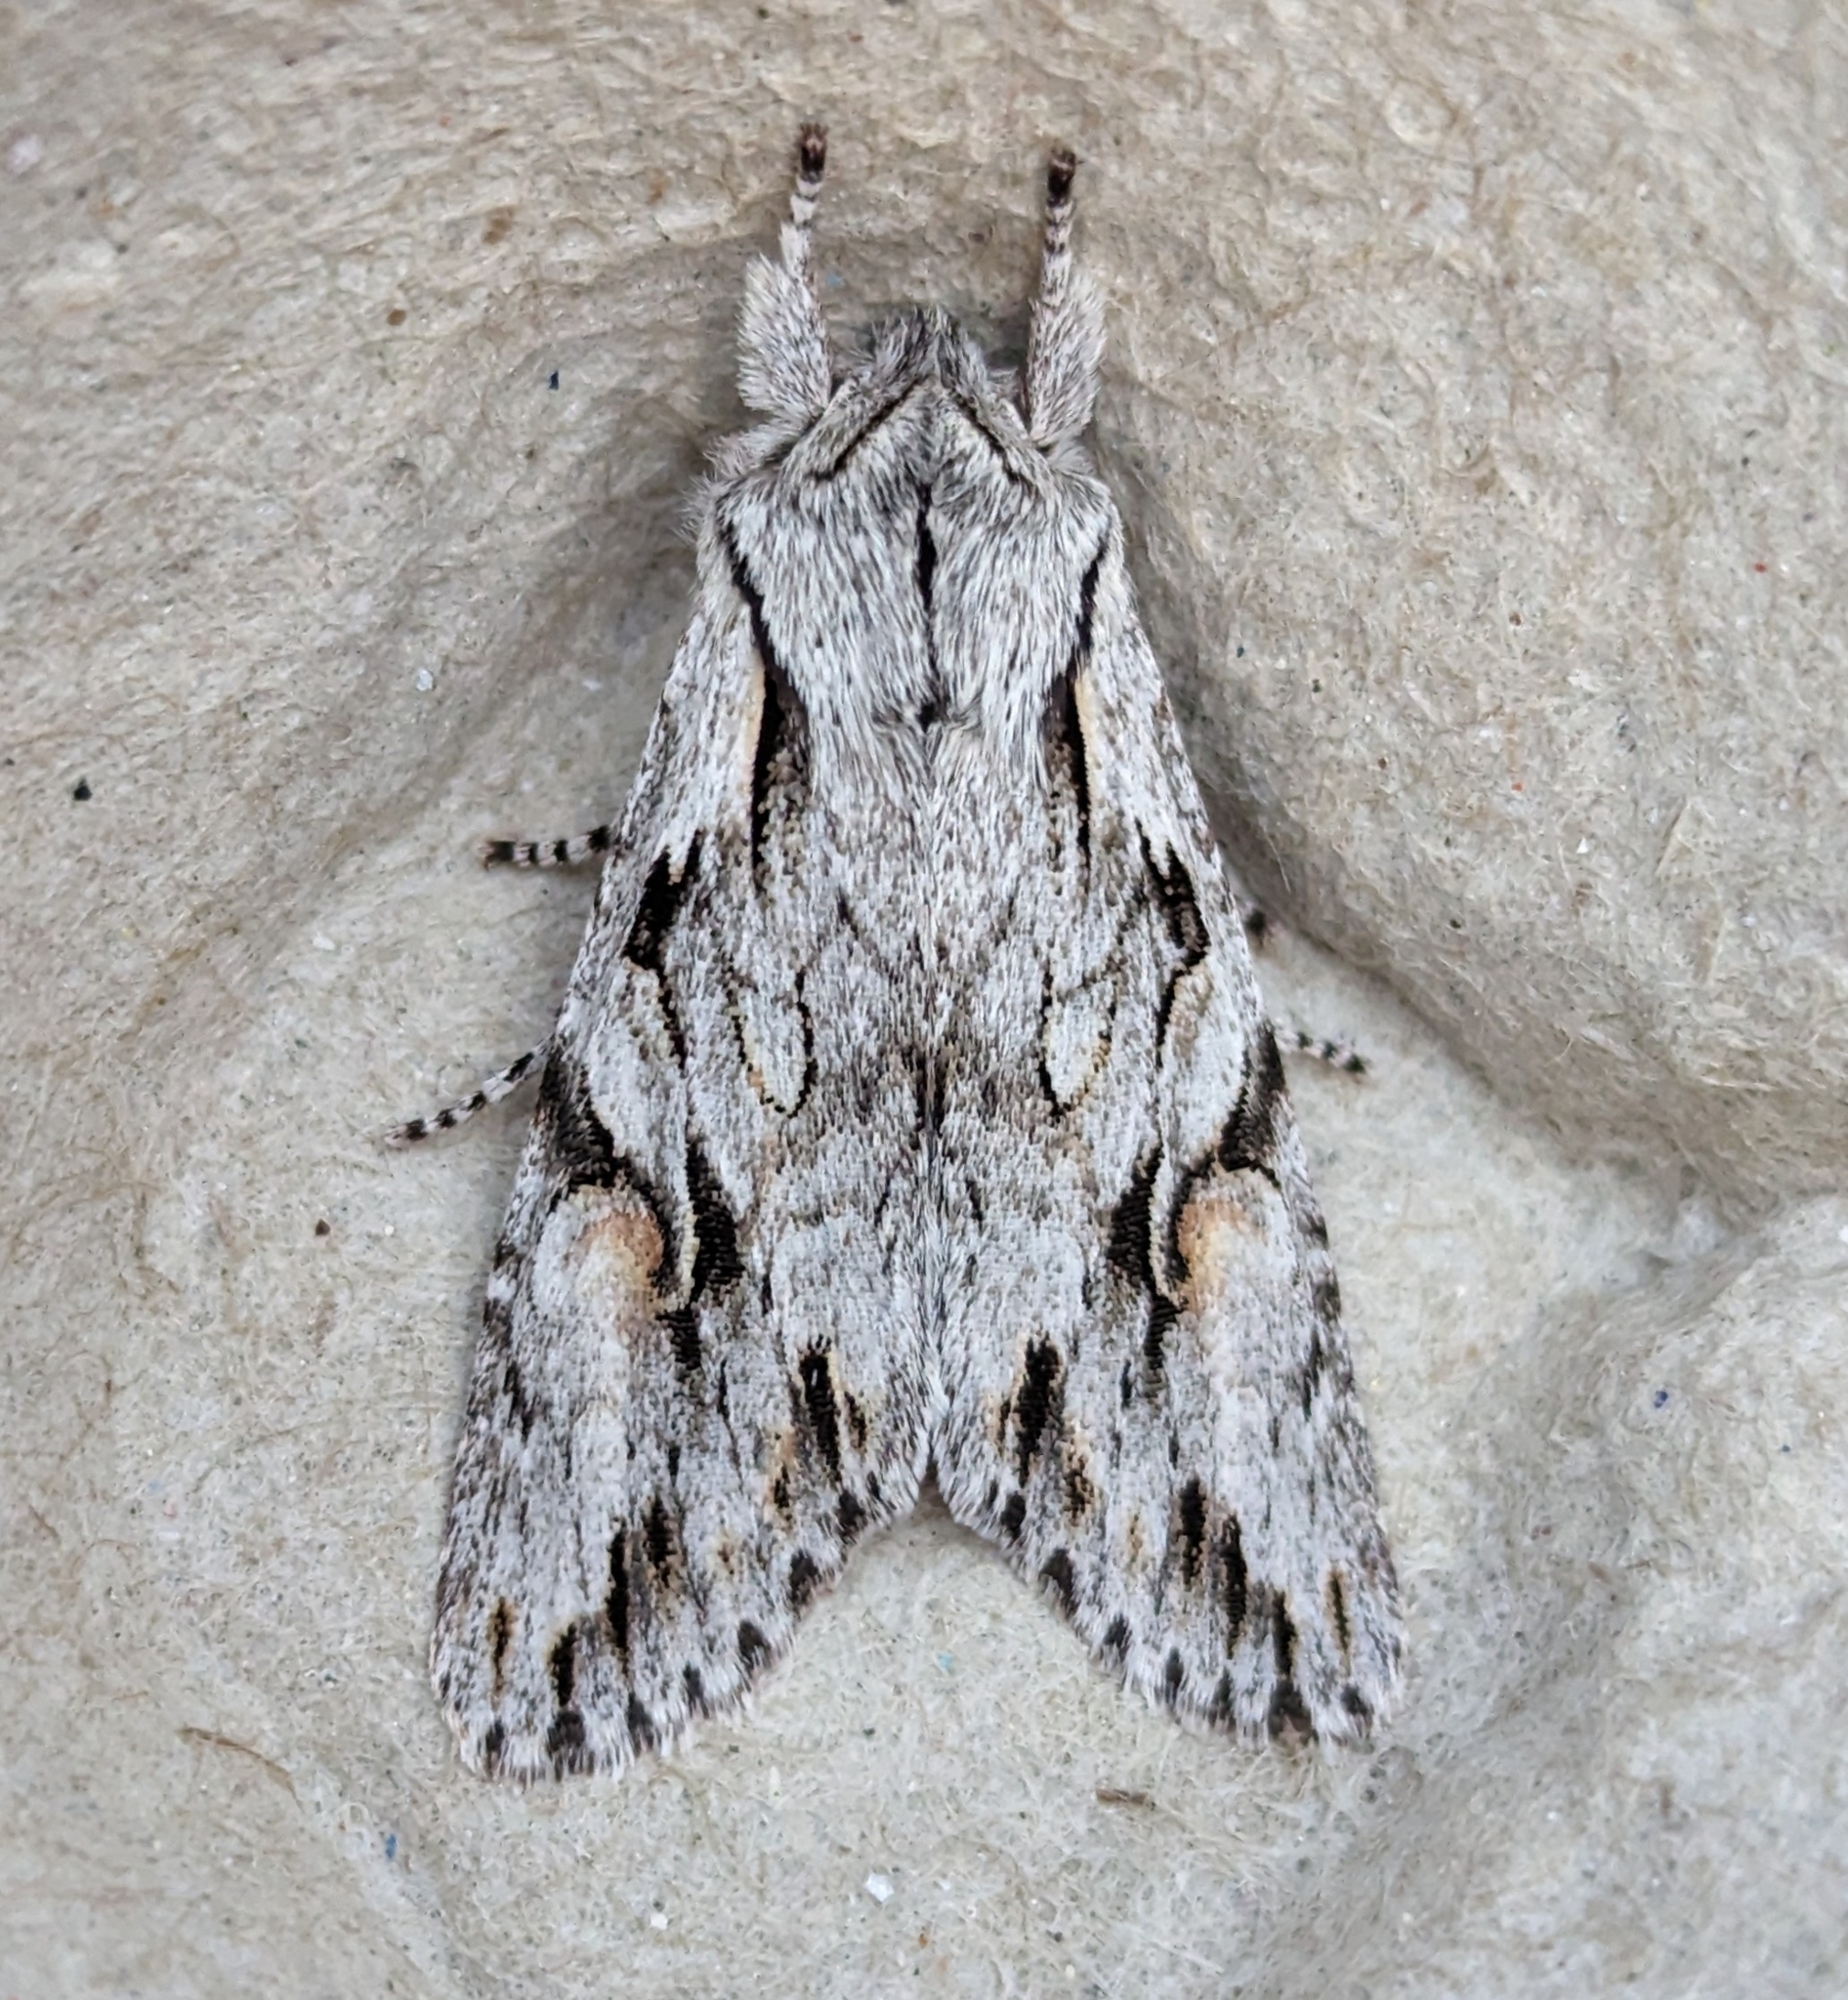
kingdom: Animalia
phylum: Arthropoda
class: Insecta
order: Lepidoptera
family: Noctuidae
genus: Egira
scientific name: Egira crucialis
